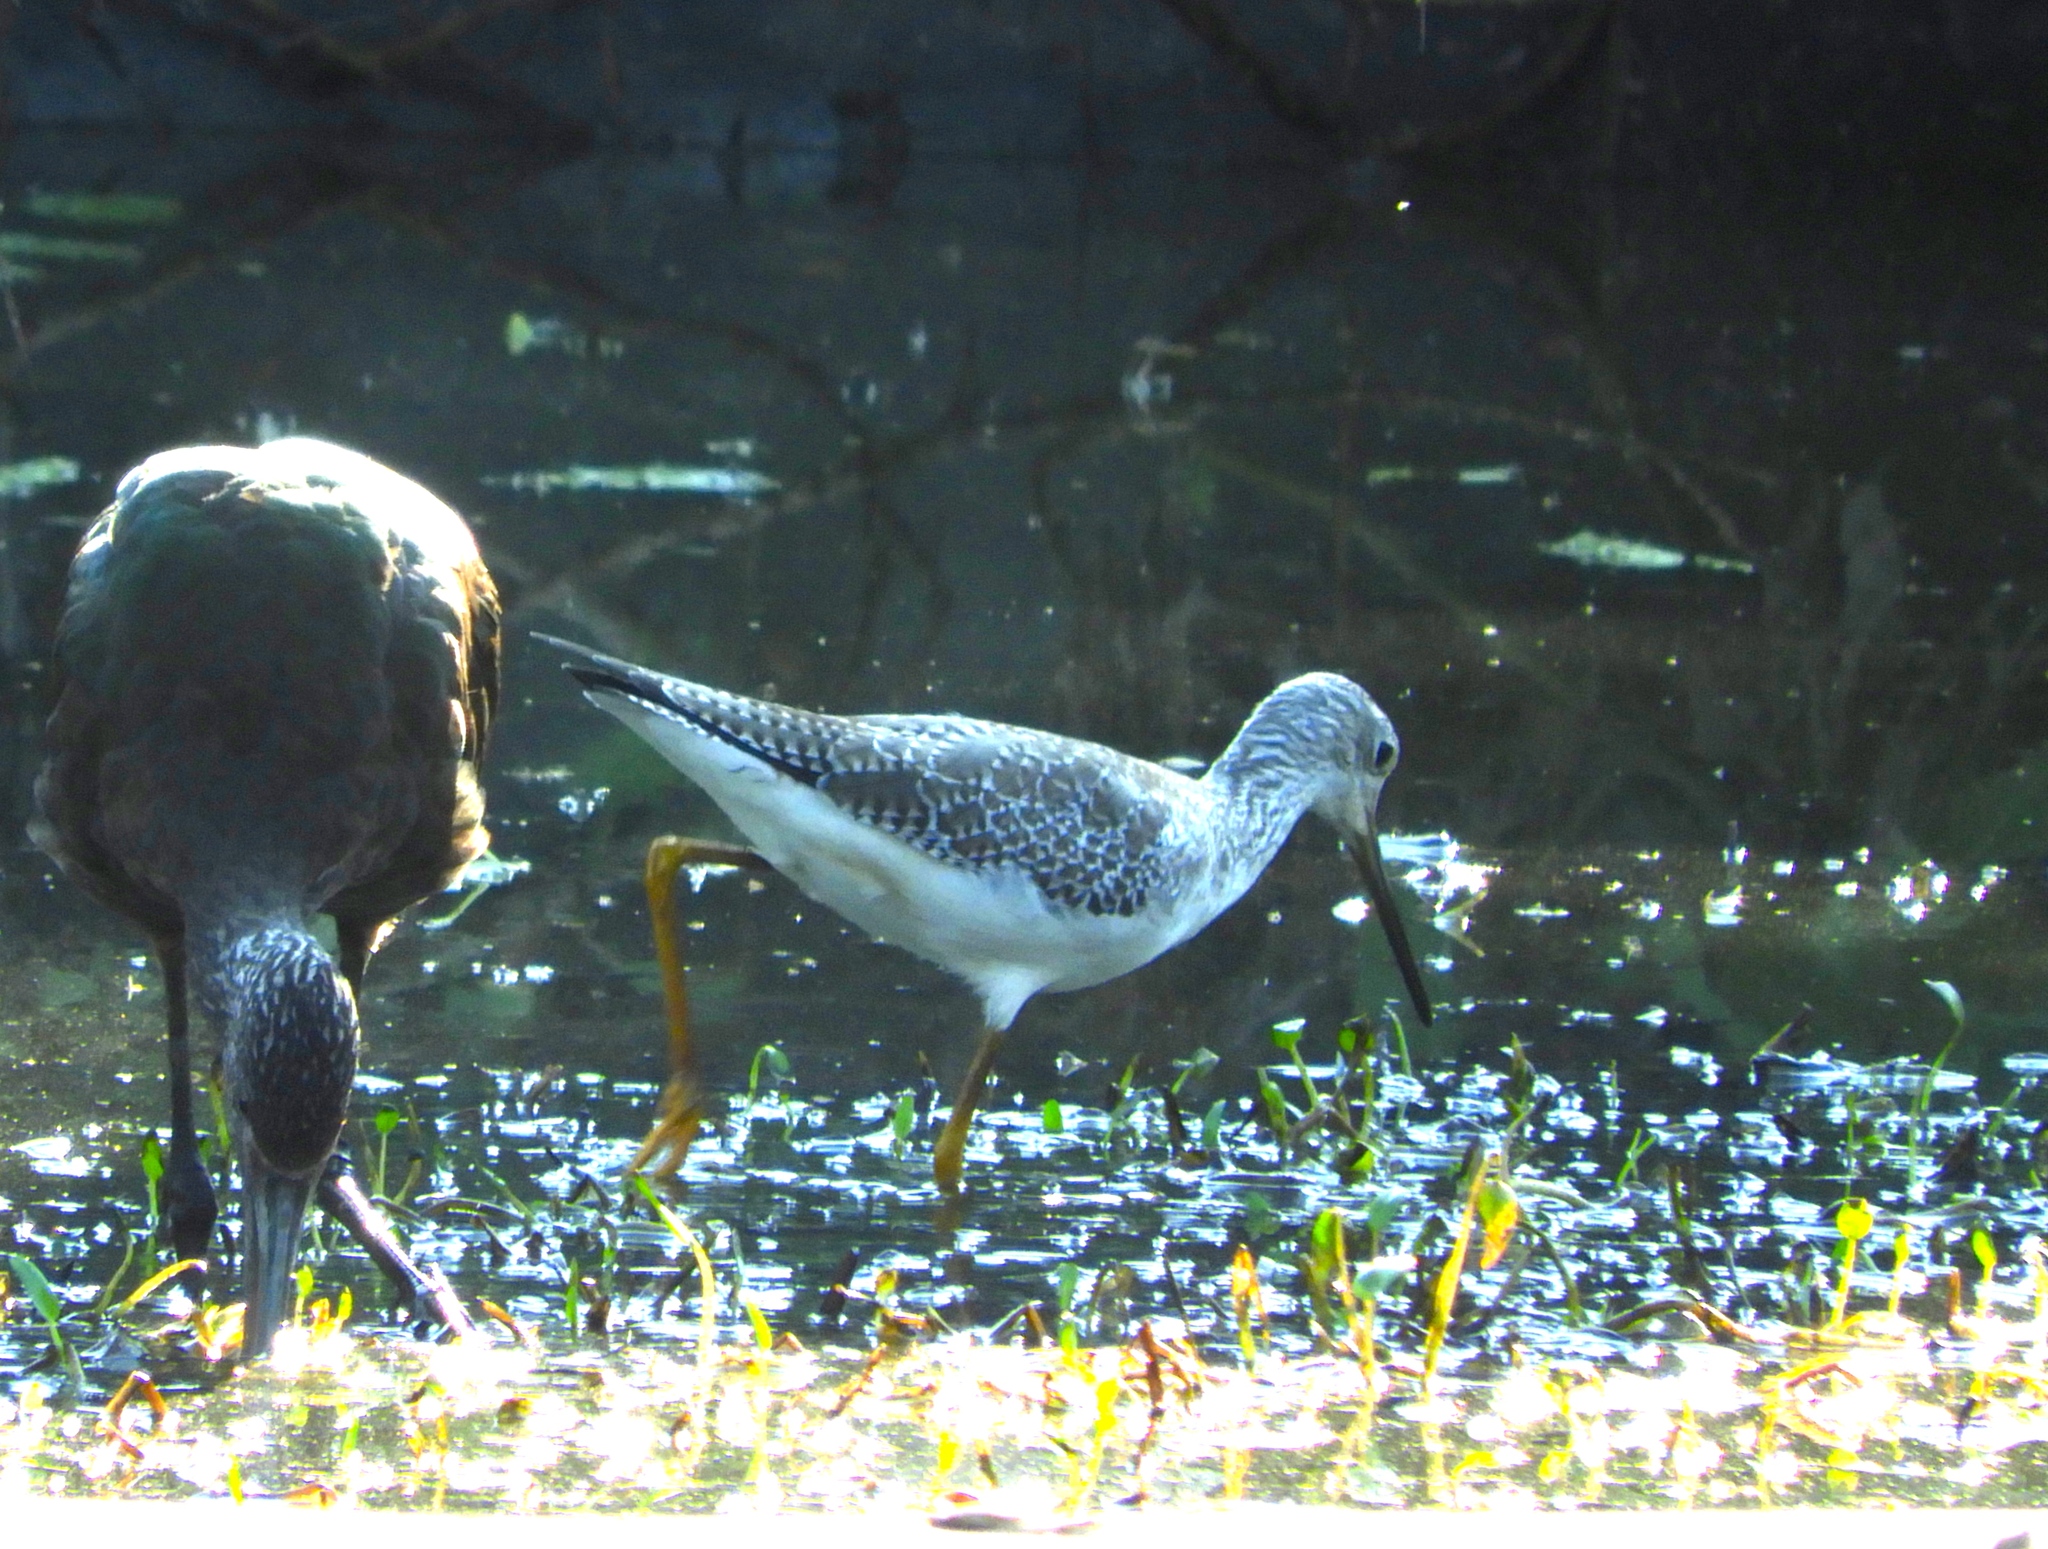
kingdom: Animalia
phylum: Chordata
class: Aves
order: Charadriiformes
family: Scolopacidae
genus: Tringa
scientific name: Tringa melanoleuca
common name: Greater yellowlegs
